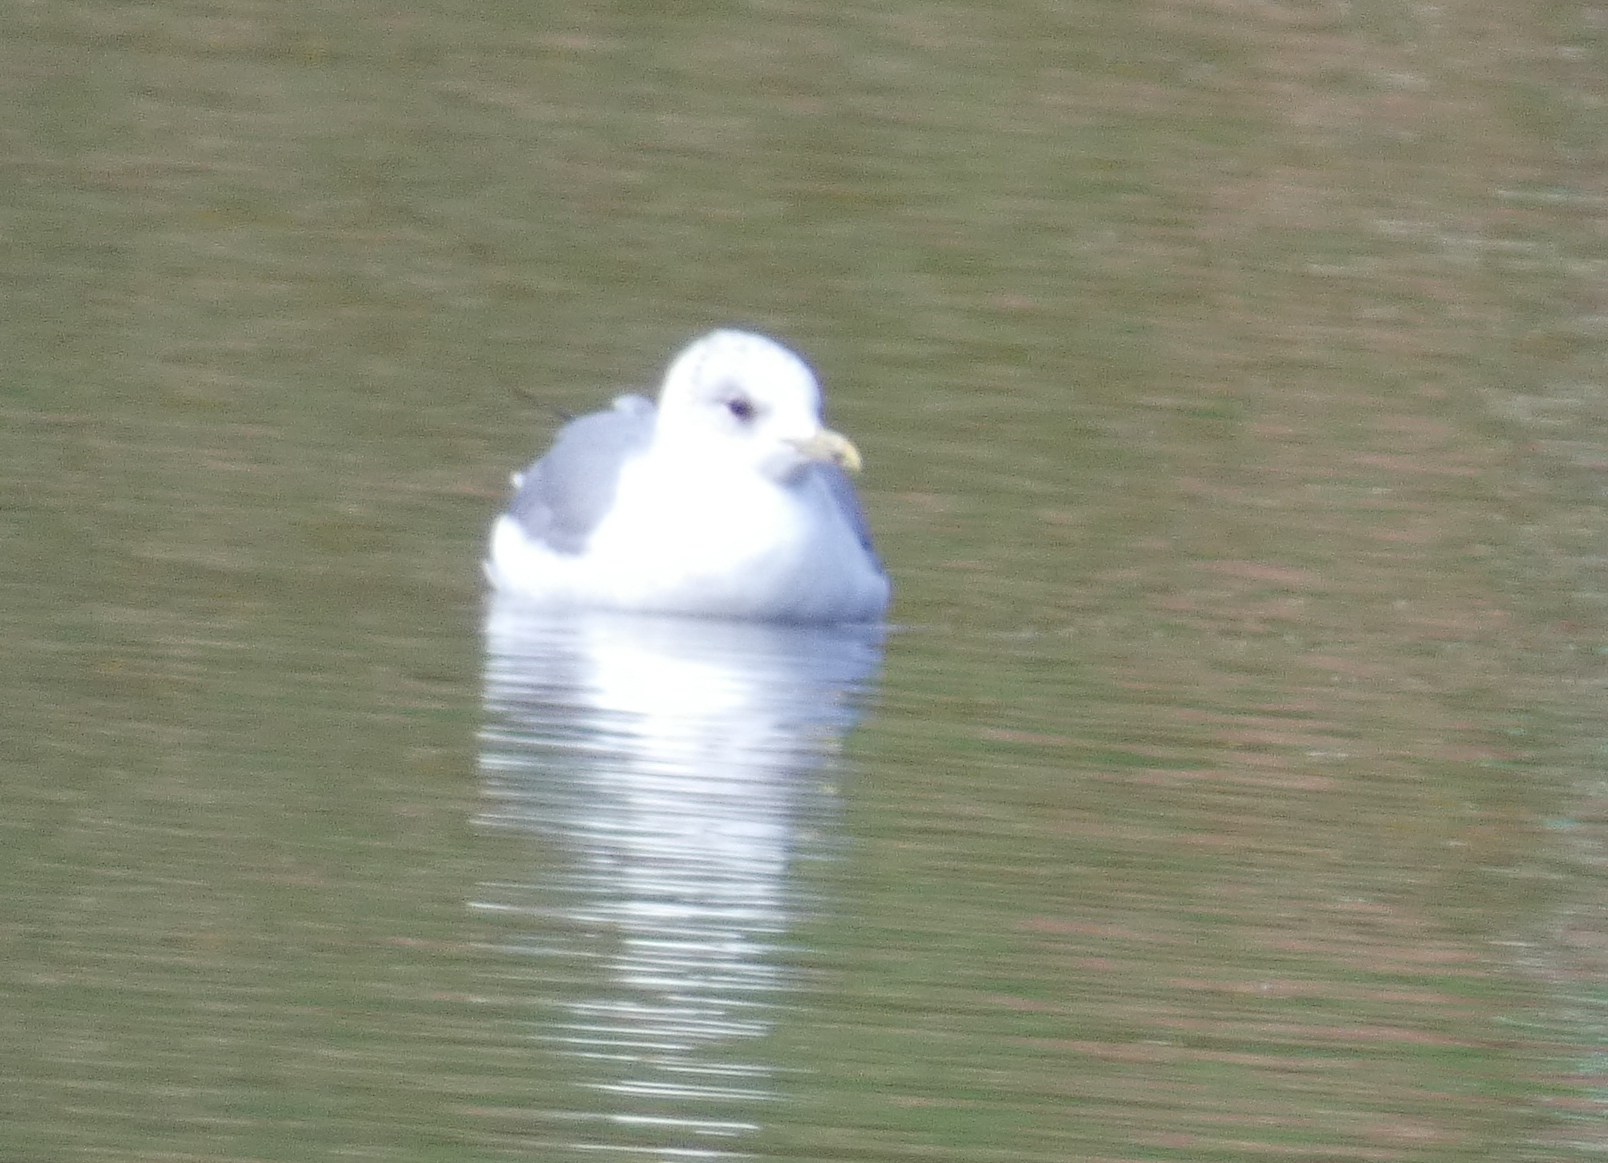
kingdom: Animalia
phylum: Chordata
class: Aves
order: Charadriiformes
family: Laridae
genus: Larus
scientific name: Larus canus
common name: Mew gull
